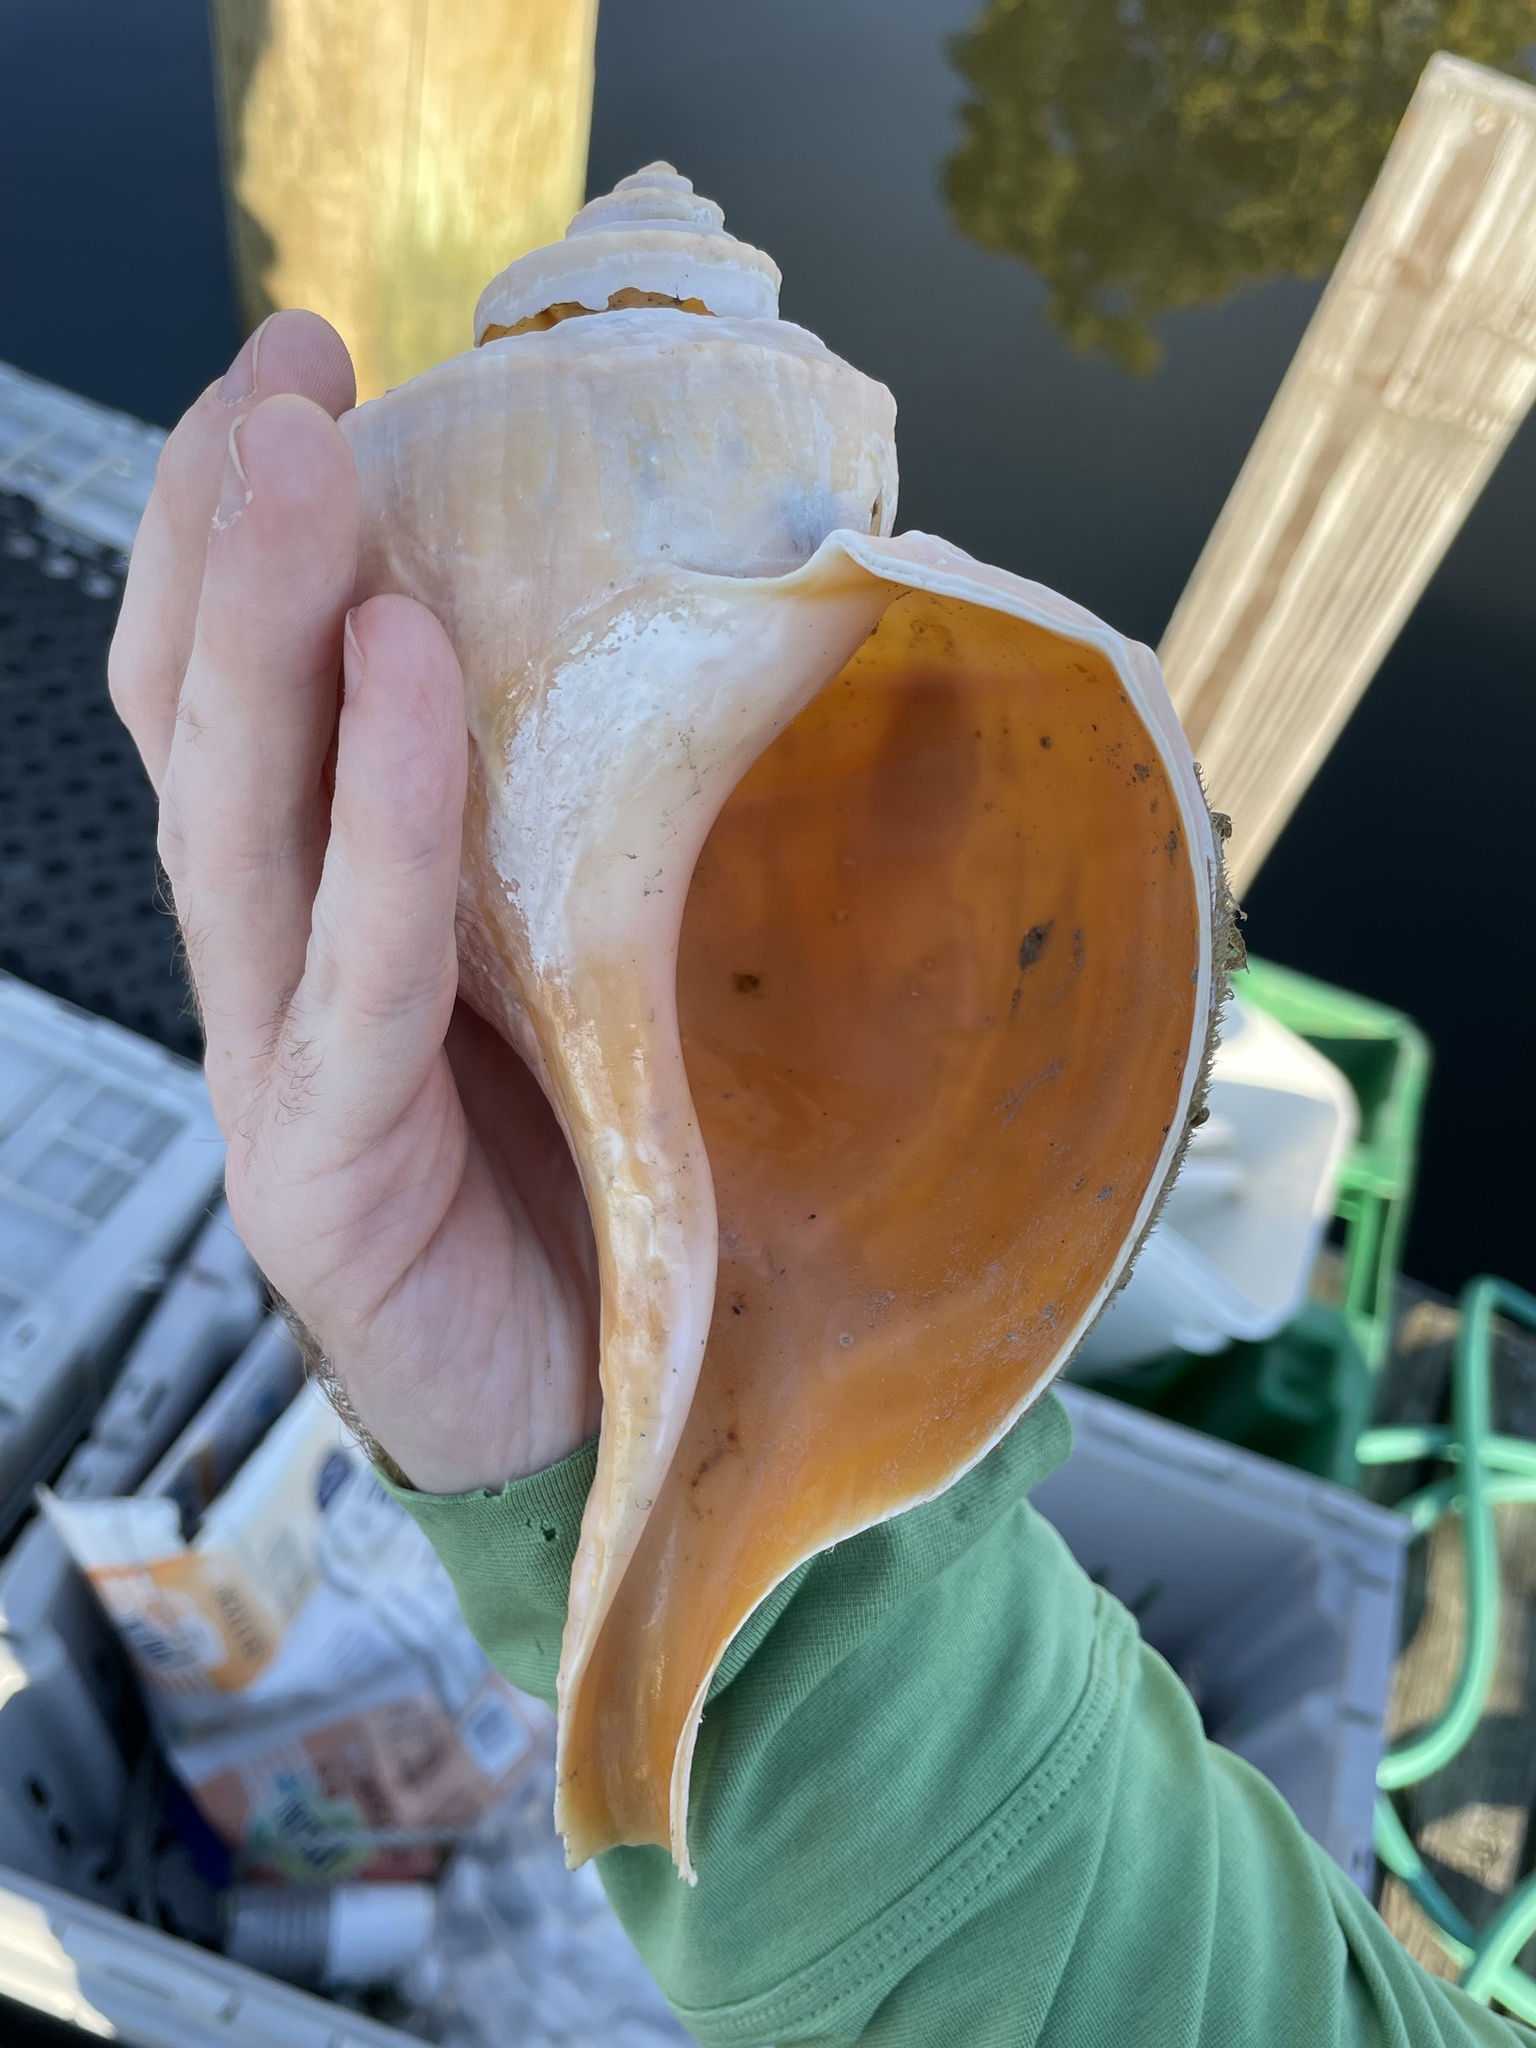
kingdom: Animalia
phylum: Mollusca
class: Gastropoda
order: Neogastropoda
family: Busyconidae
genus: Busycotypus
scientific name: Busycotypus canaliculatus
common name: Channeled whelk
